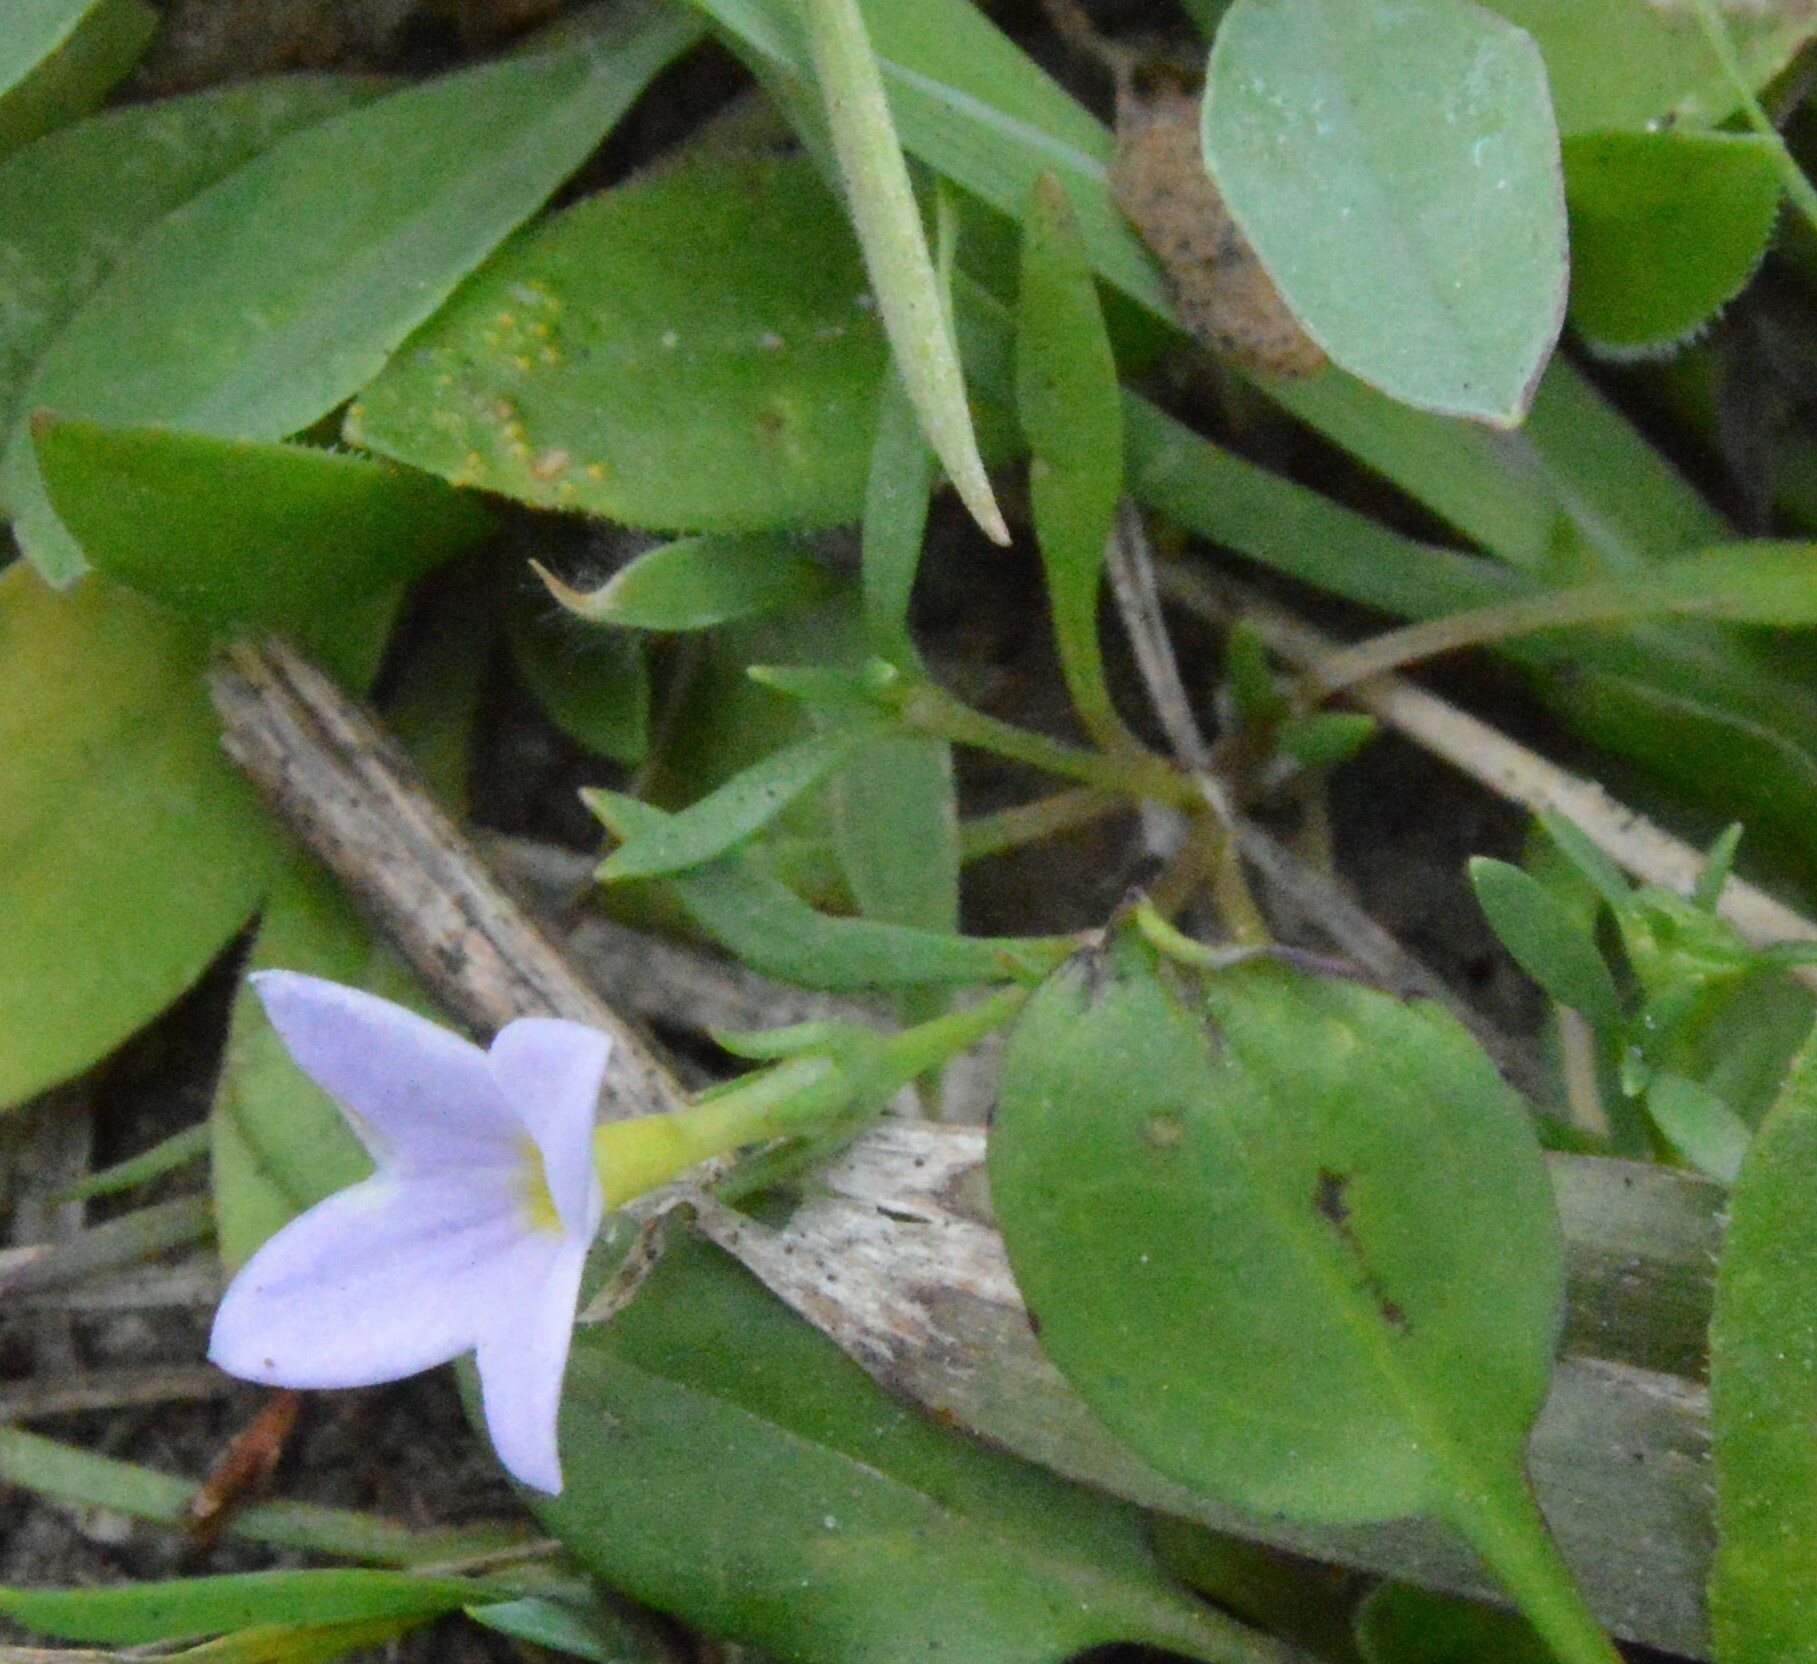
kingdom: Plantae
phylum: Tracheophyta
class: Magnoliopsida
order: Gentianales
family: Rubiaceae
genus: Houstonia
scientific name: Houstonia rosea
